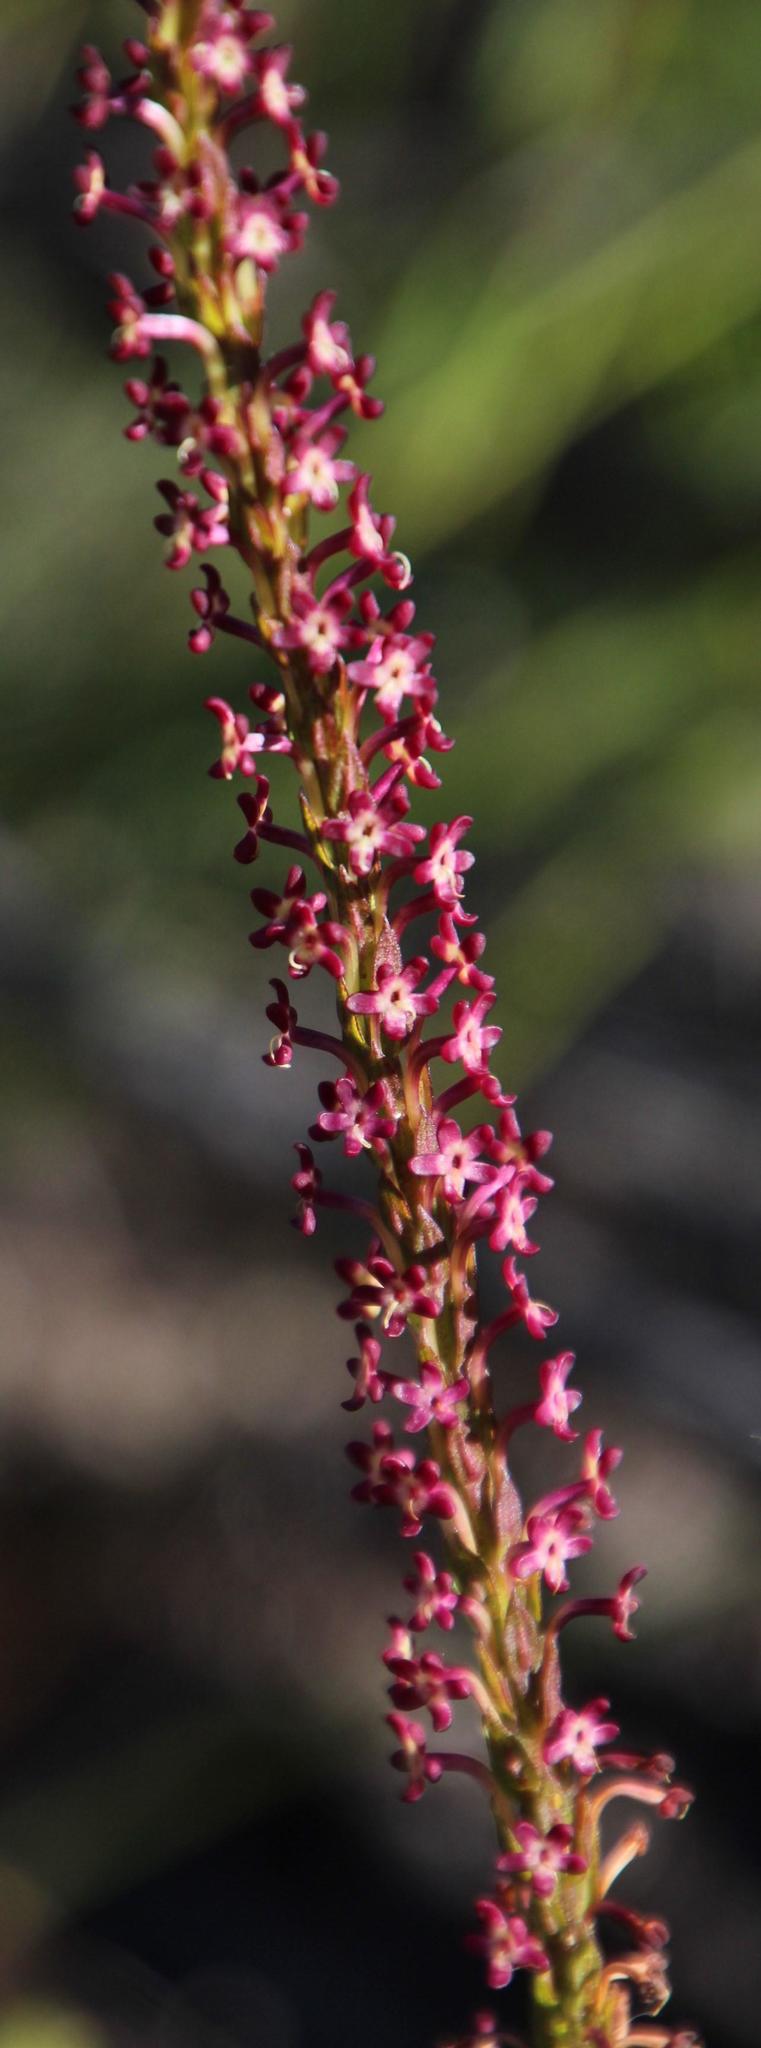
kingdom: Plantae
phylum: Tracheophyta
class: Magnoliopsida
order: Lamiales
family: Scrophulariaceae
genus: Microdon
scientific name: Microdon dubius
